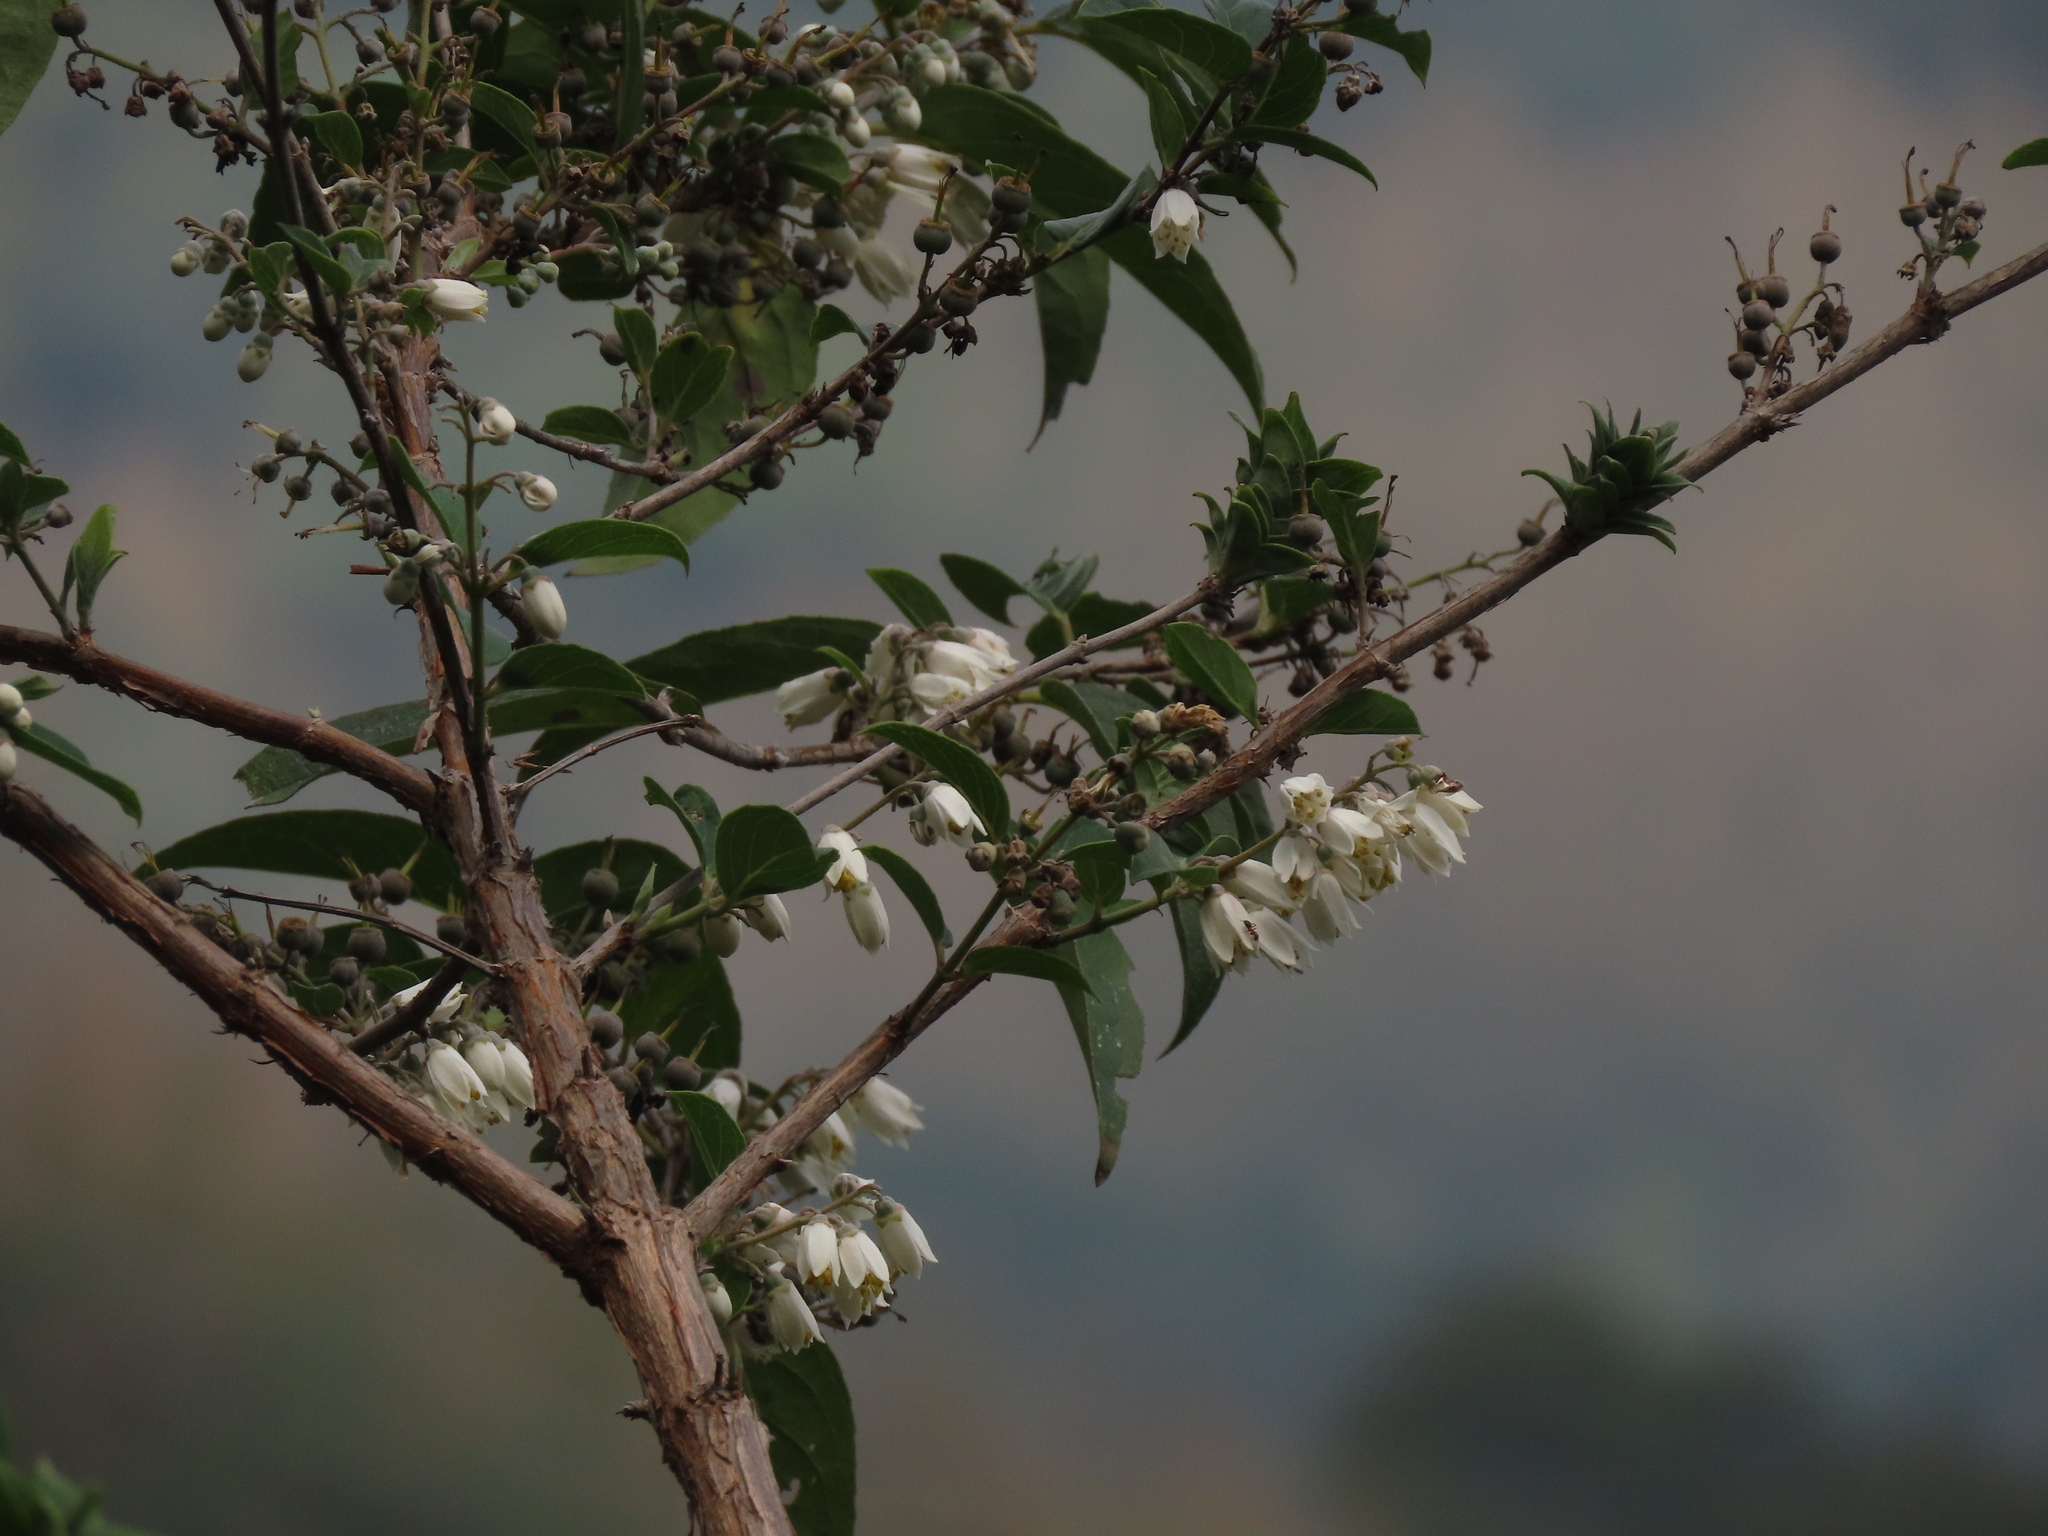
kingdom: Plantae
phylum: Tracheophyta
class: Magnoliopsida
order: Cornales
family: Hydrangeaceae
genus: Deutzia
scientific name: Deutzia pulchra
